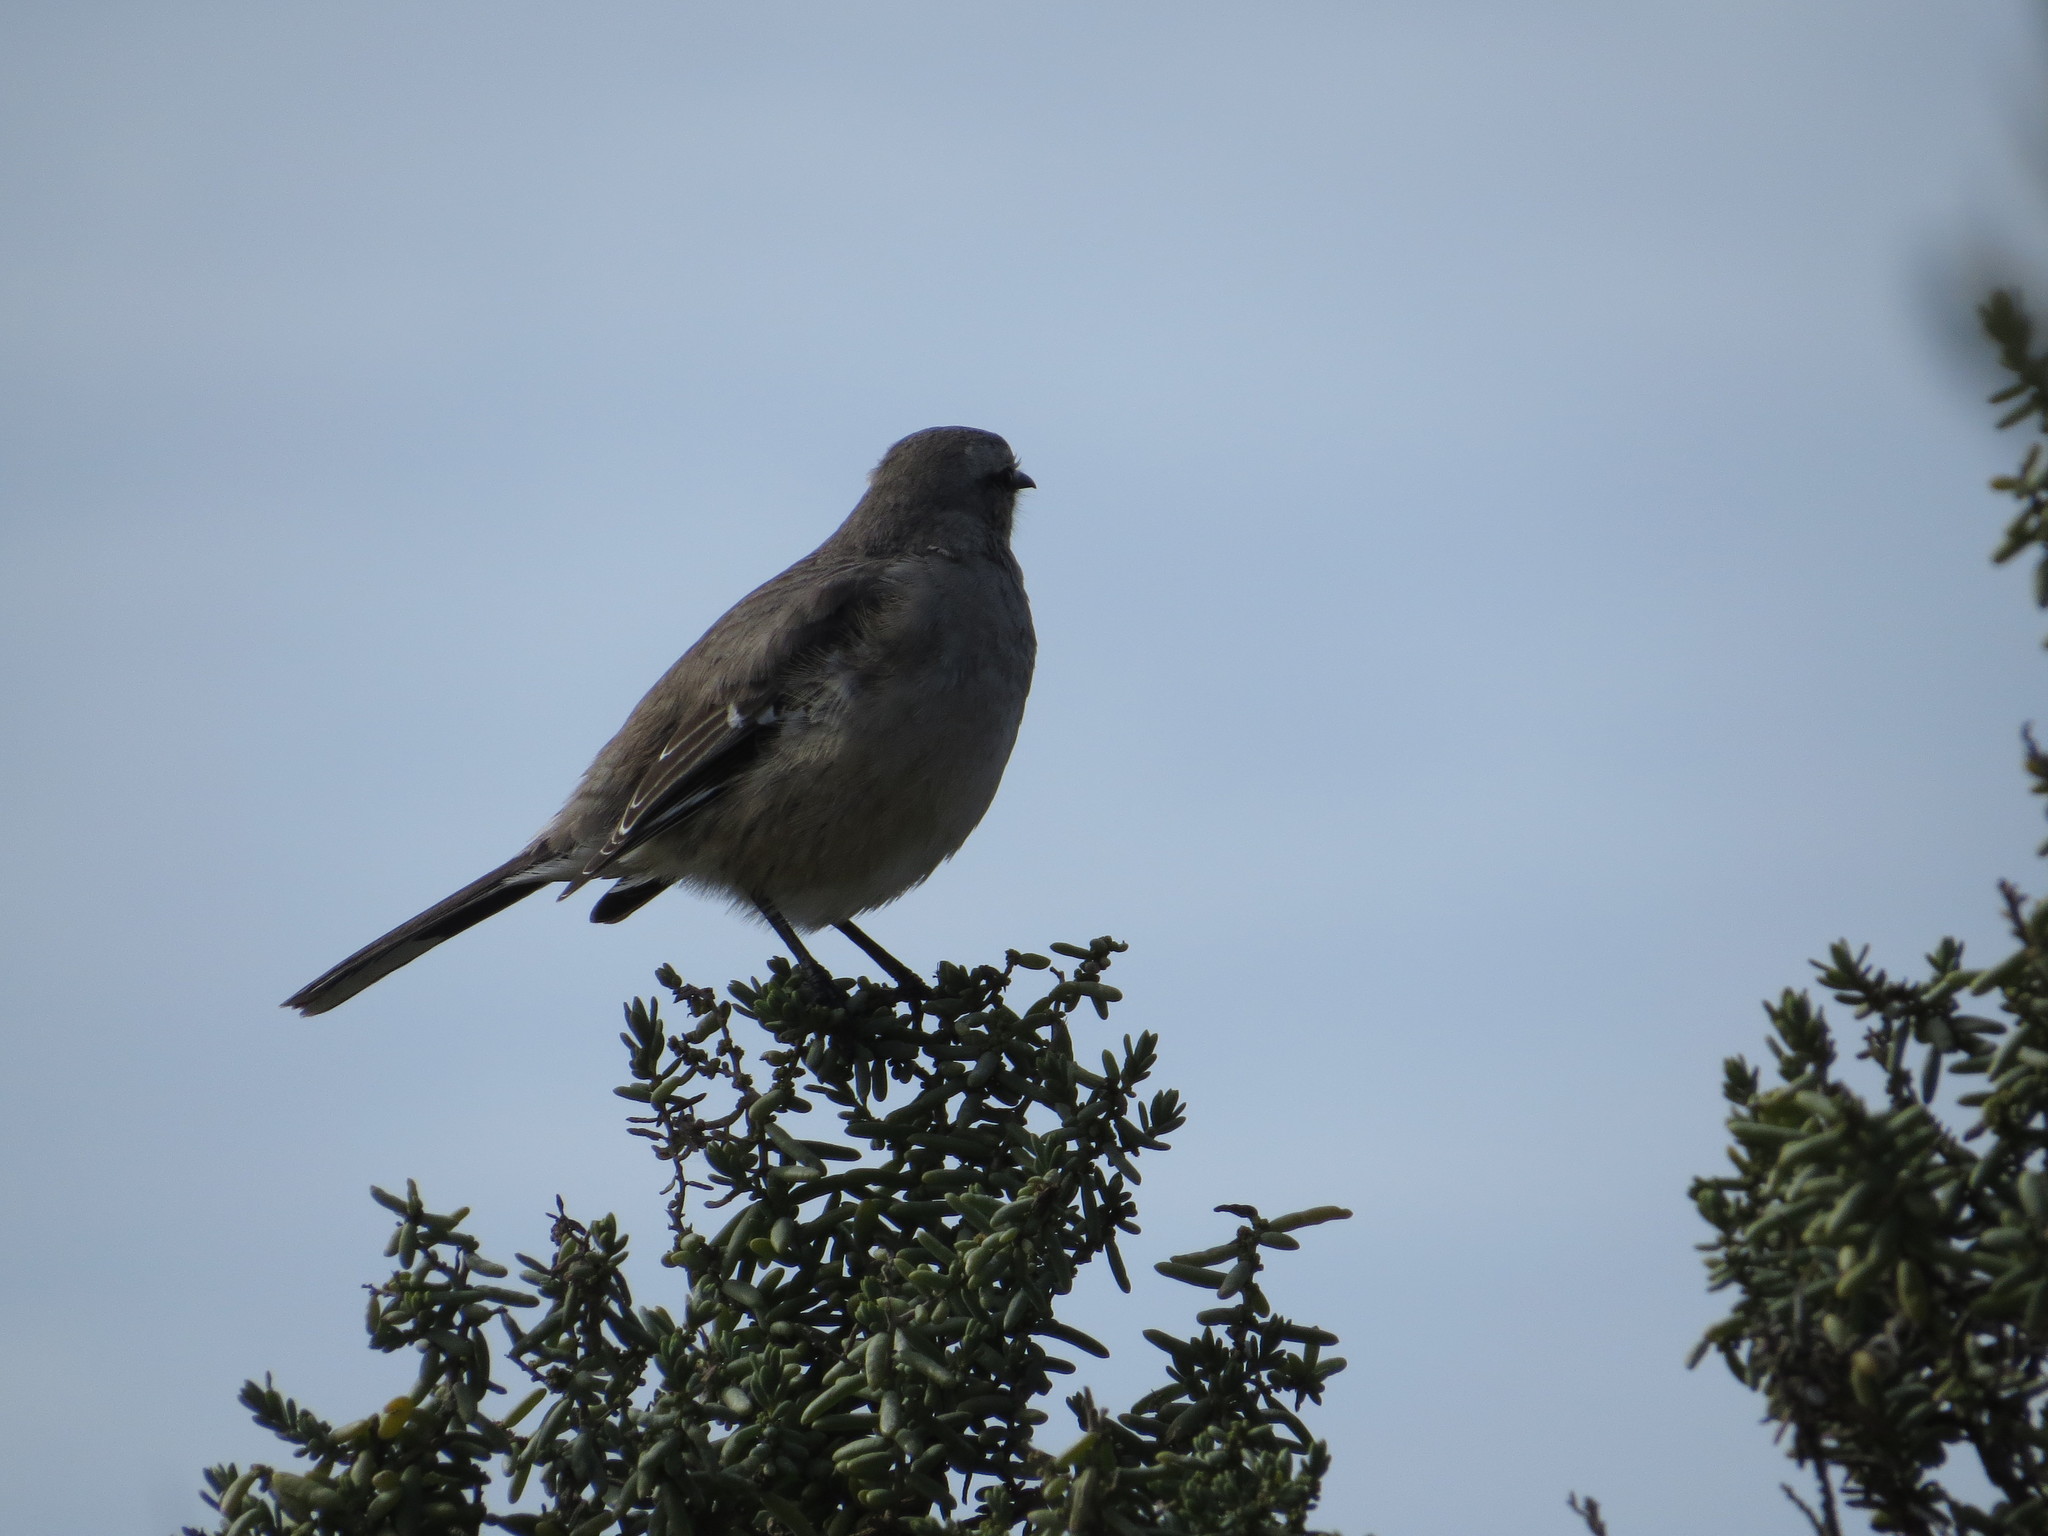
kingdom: Animalia
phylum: Chordata
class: Aves
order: Passeriformes
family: Mimidae
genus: Mimus
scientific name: Mimus patagonicus
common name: Patagonian mockingbird
